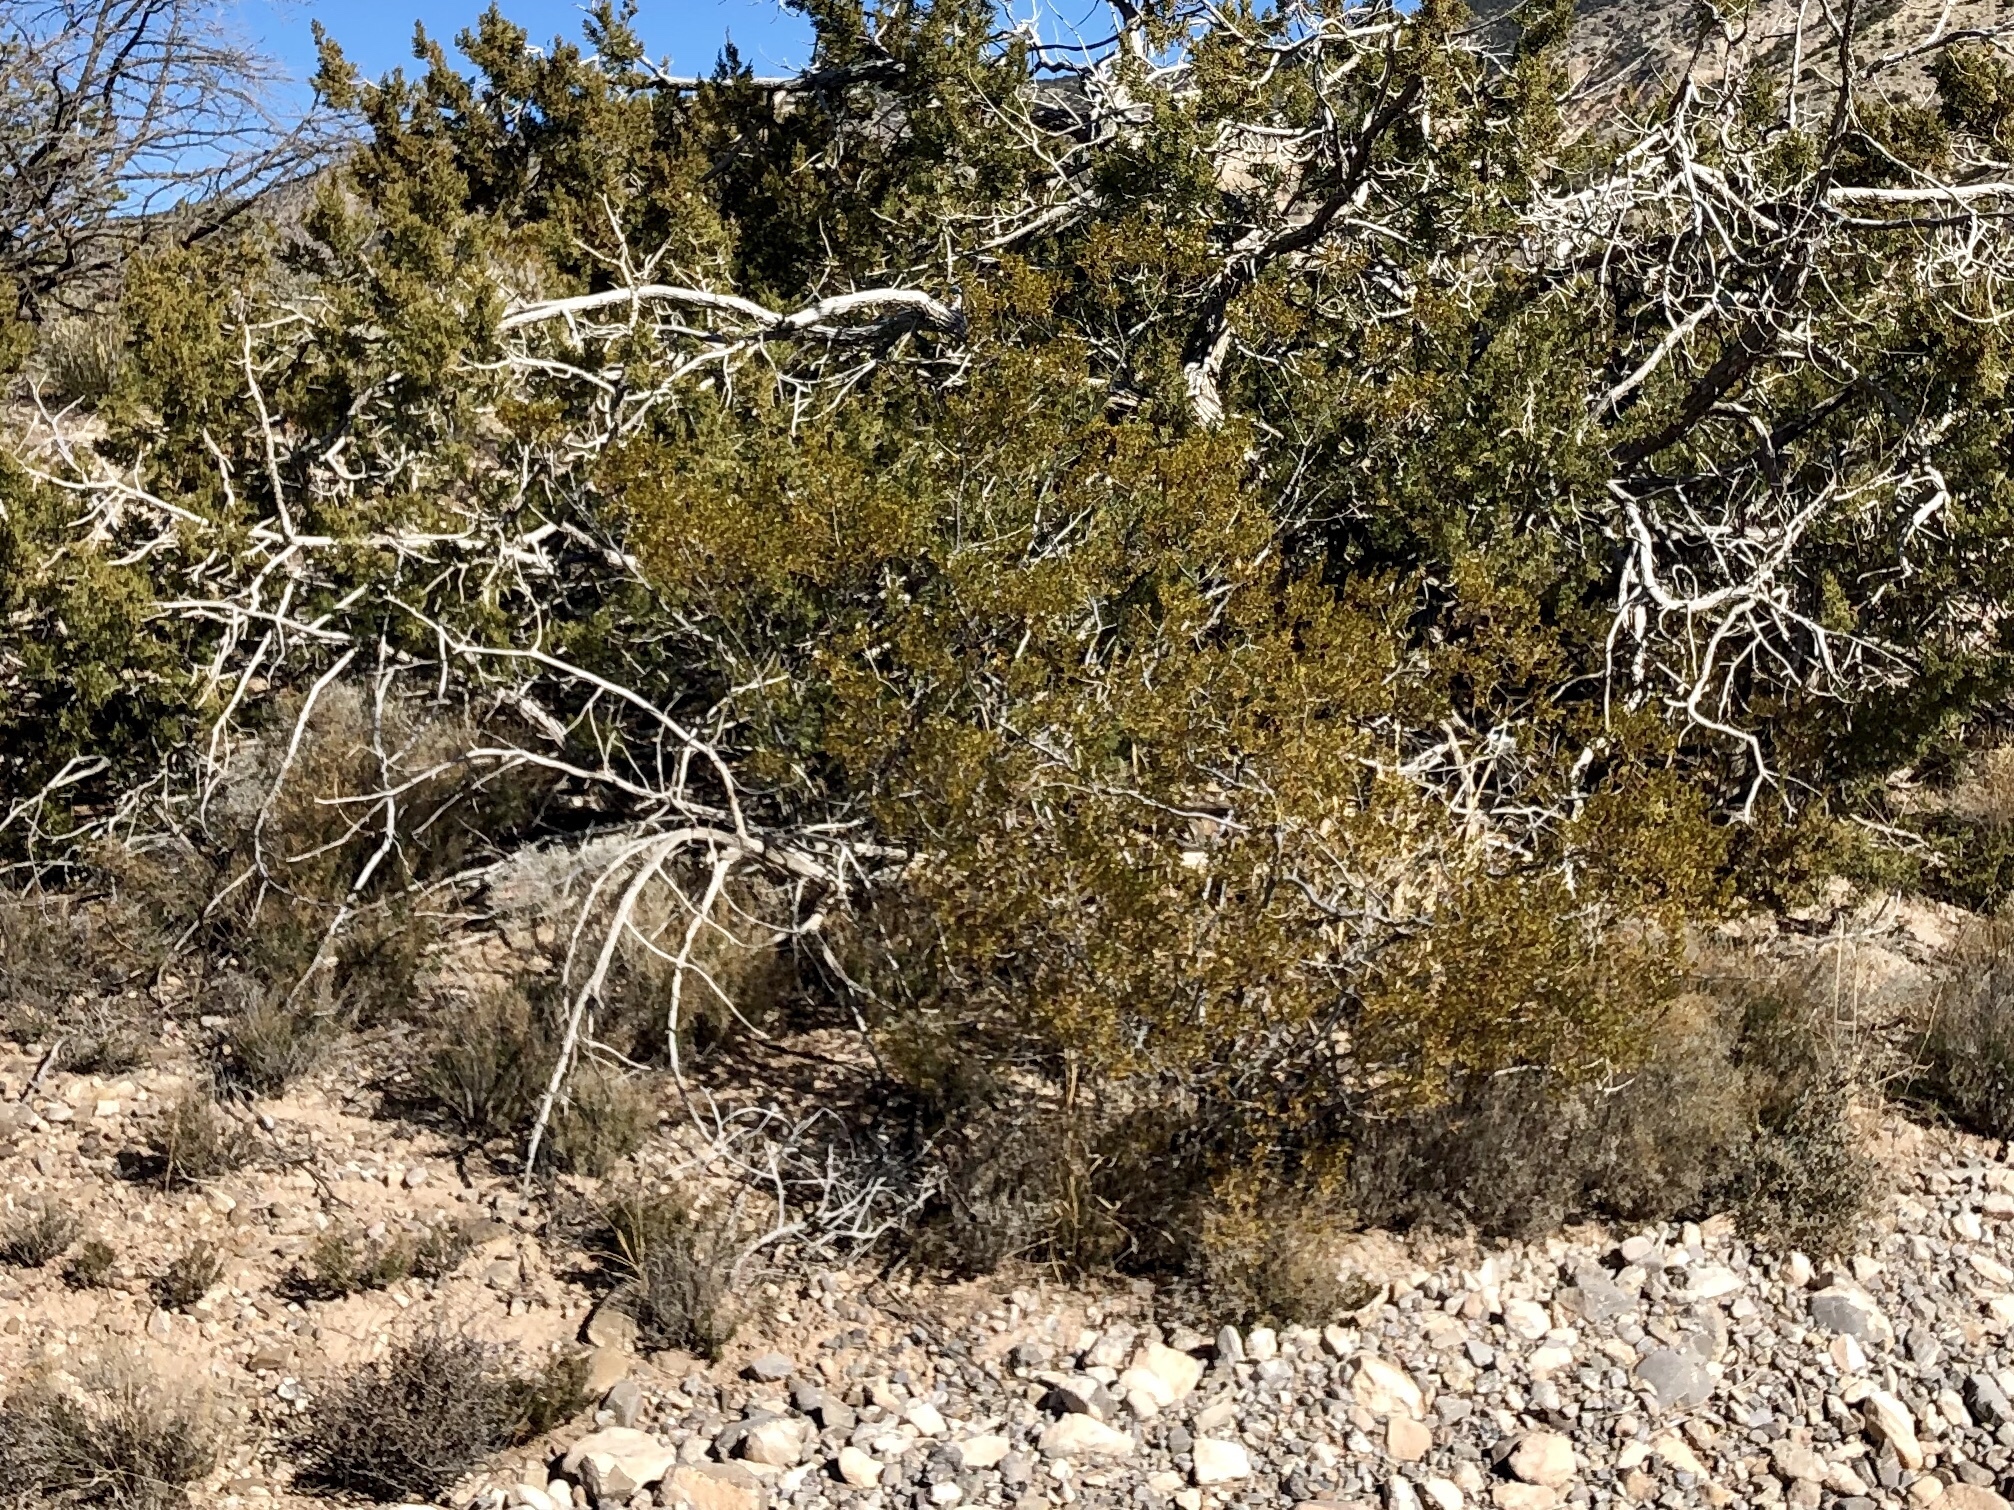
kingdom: Plantae
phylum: Tracheophyta
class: Magnoliopsida
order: Zygophyllales
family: Zygophyllaceae
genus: Larrea
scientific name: Larrea tridentata
